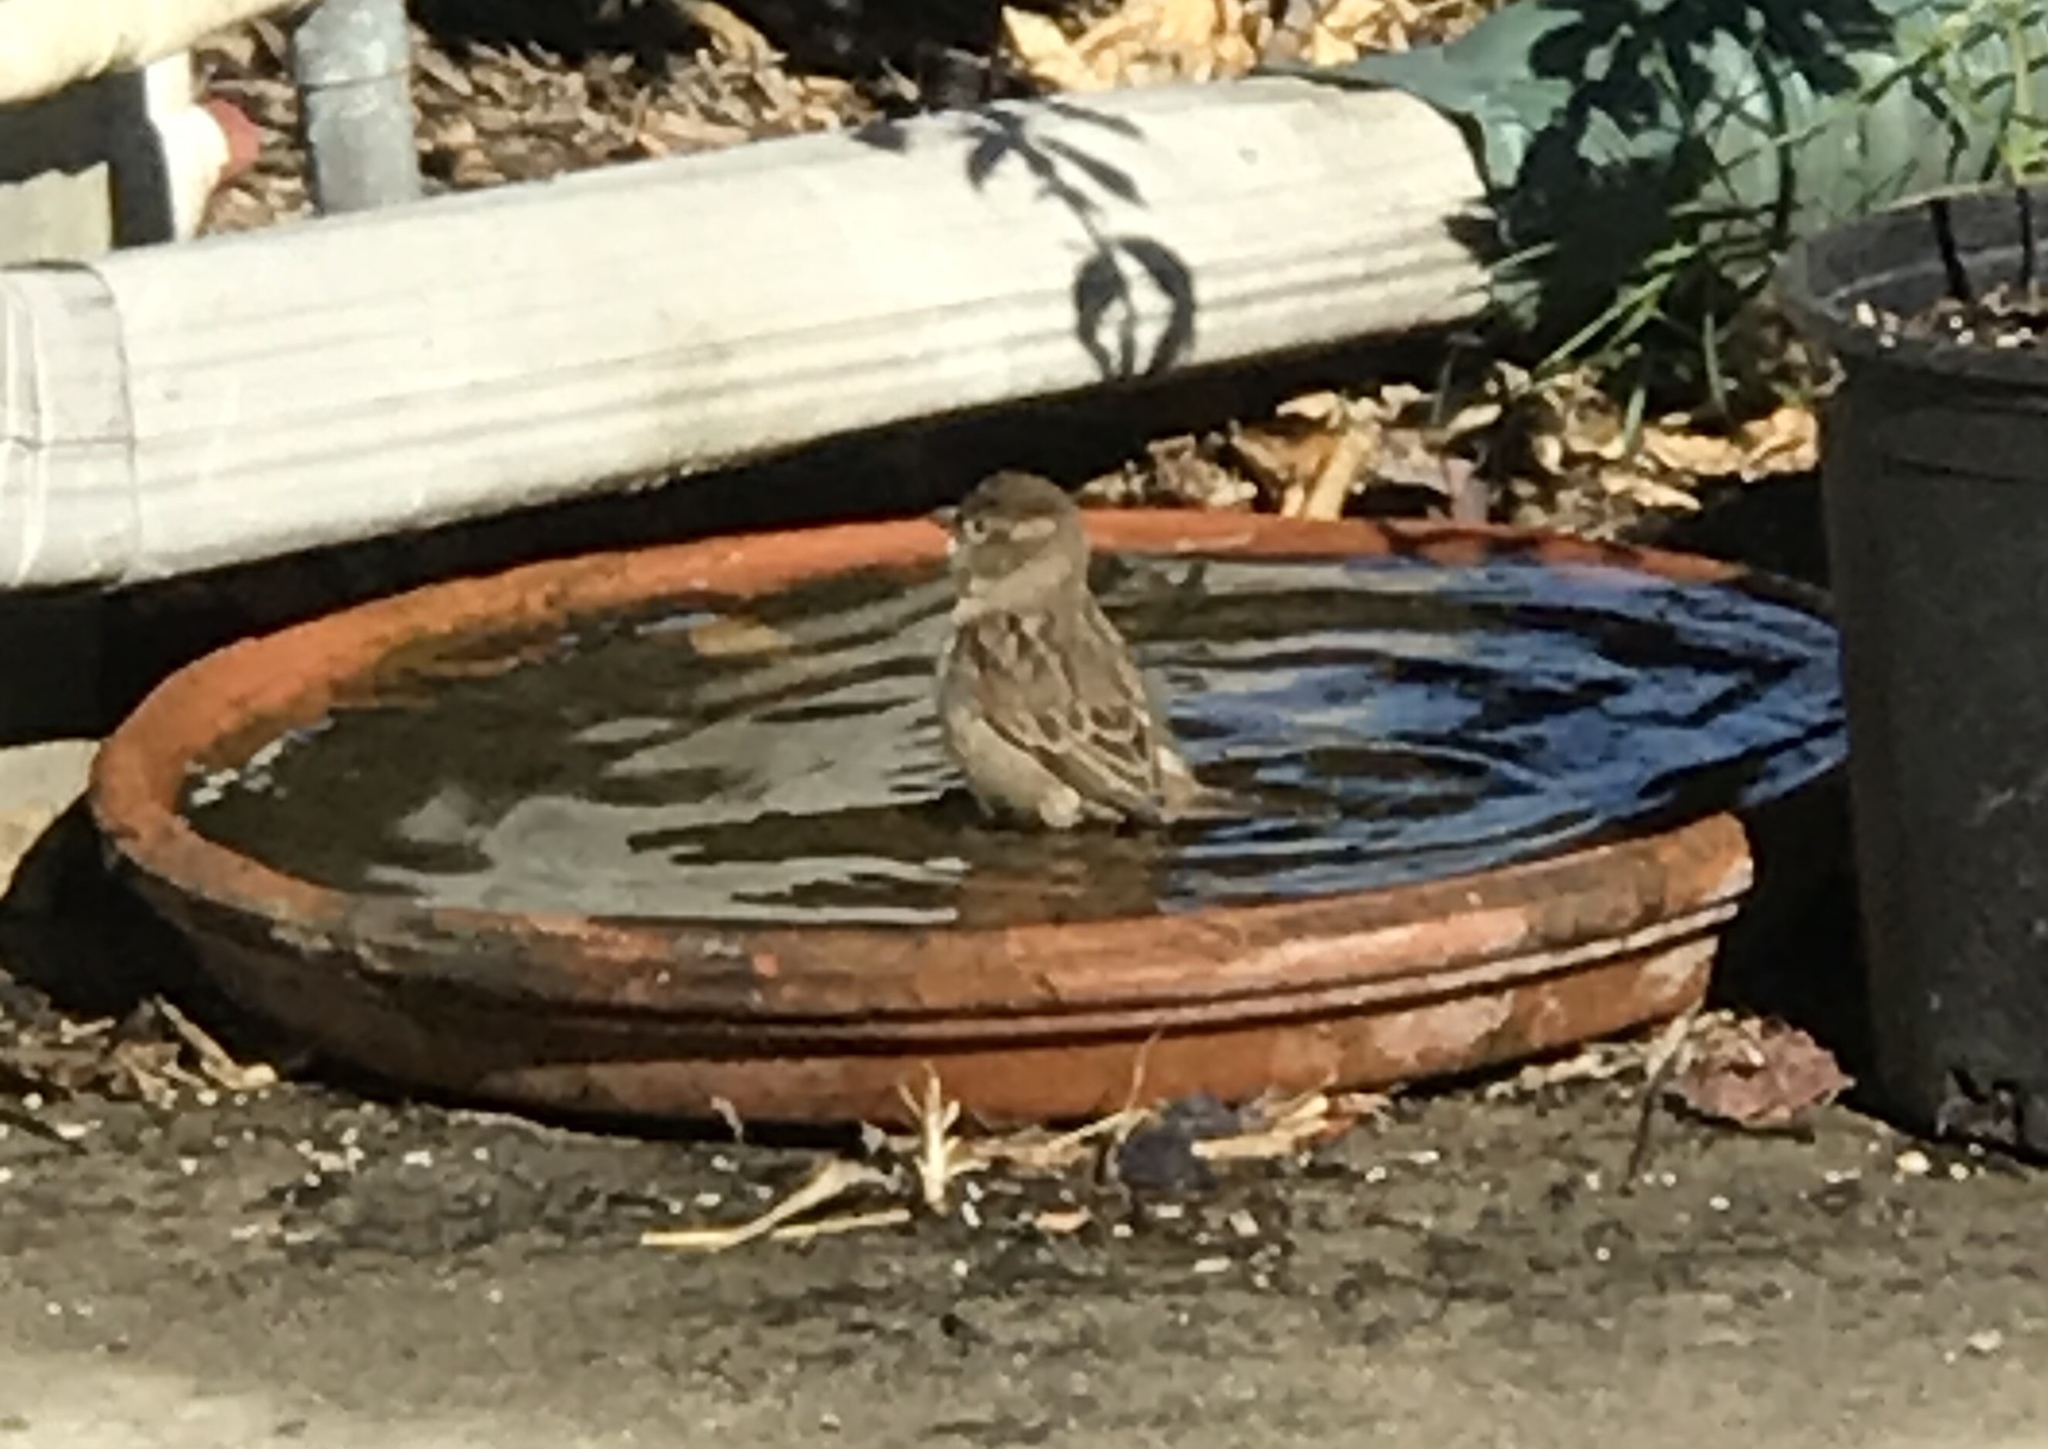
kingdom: Animalia
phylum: Chordata
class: Aves
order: Passeriformes
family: Passeridae
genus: Passer
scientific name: Passer domesticus
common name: House sparrow
